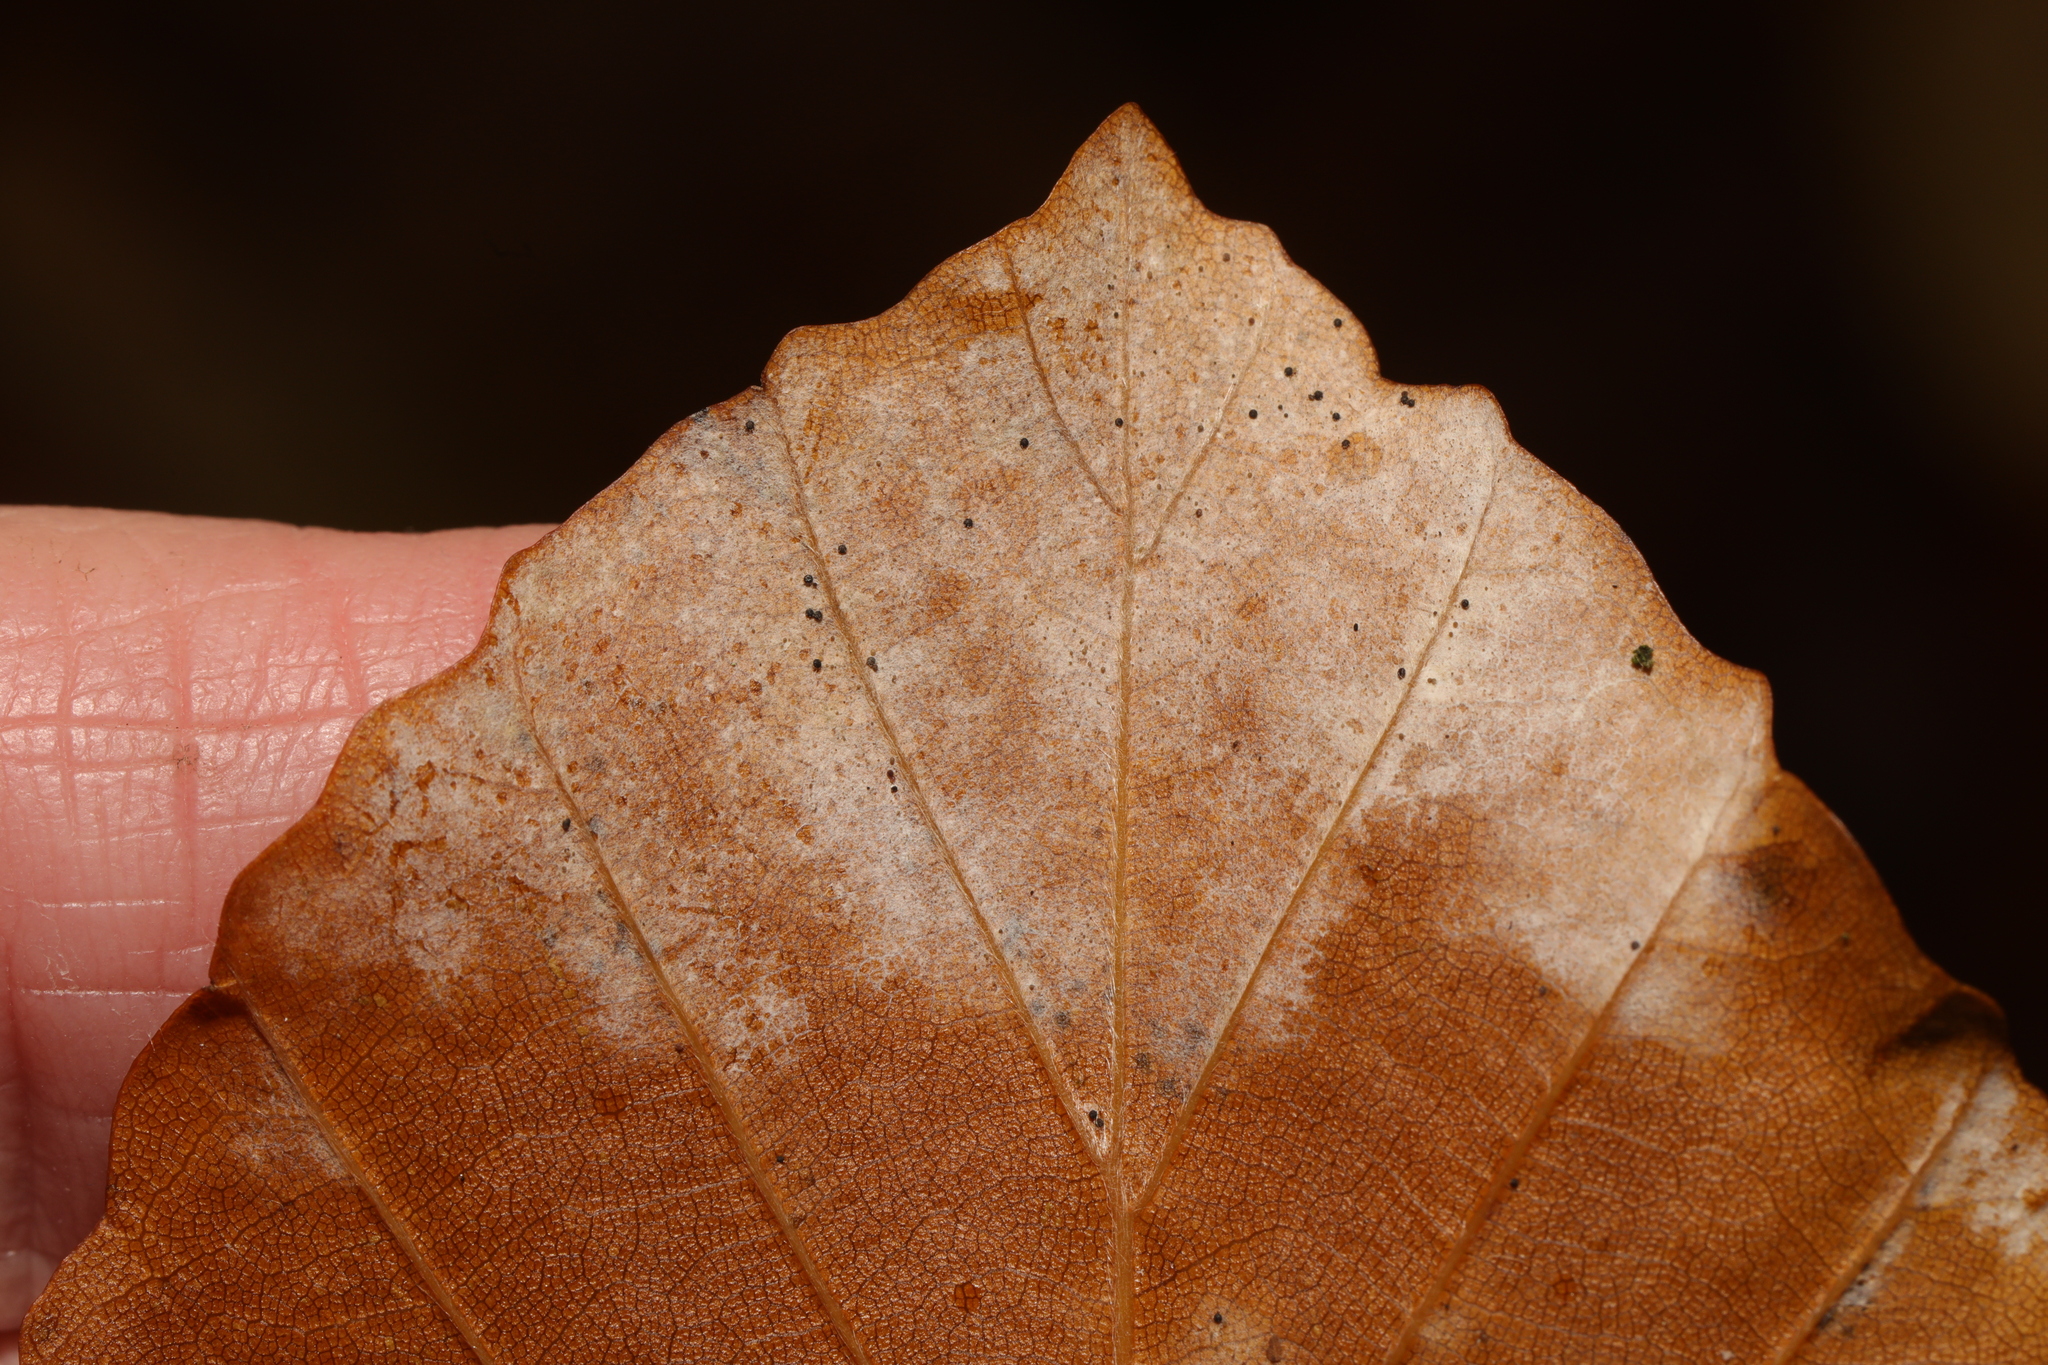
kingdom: Fungi
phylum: Ascomycota
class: Leotiomycetes
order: Helotiales
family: Erysiphaceae
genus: Phyllactinia
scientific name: Phyllactinia
